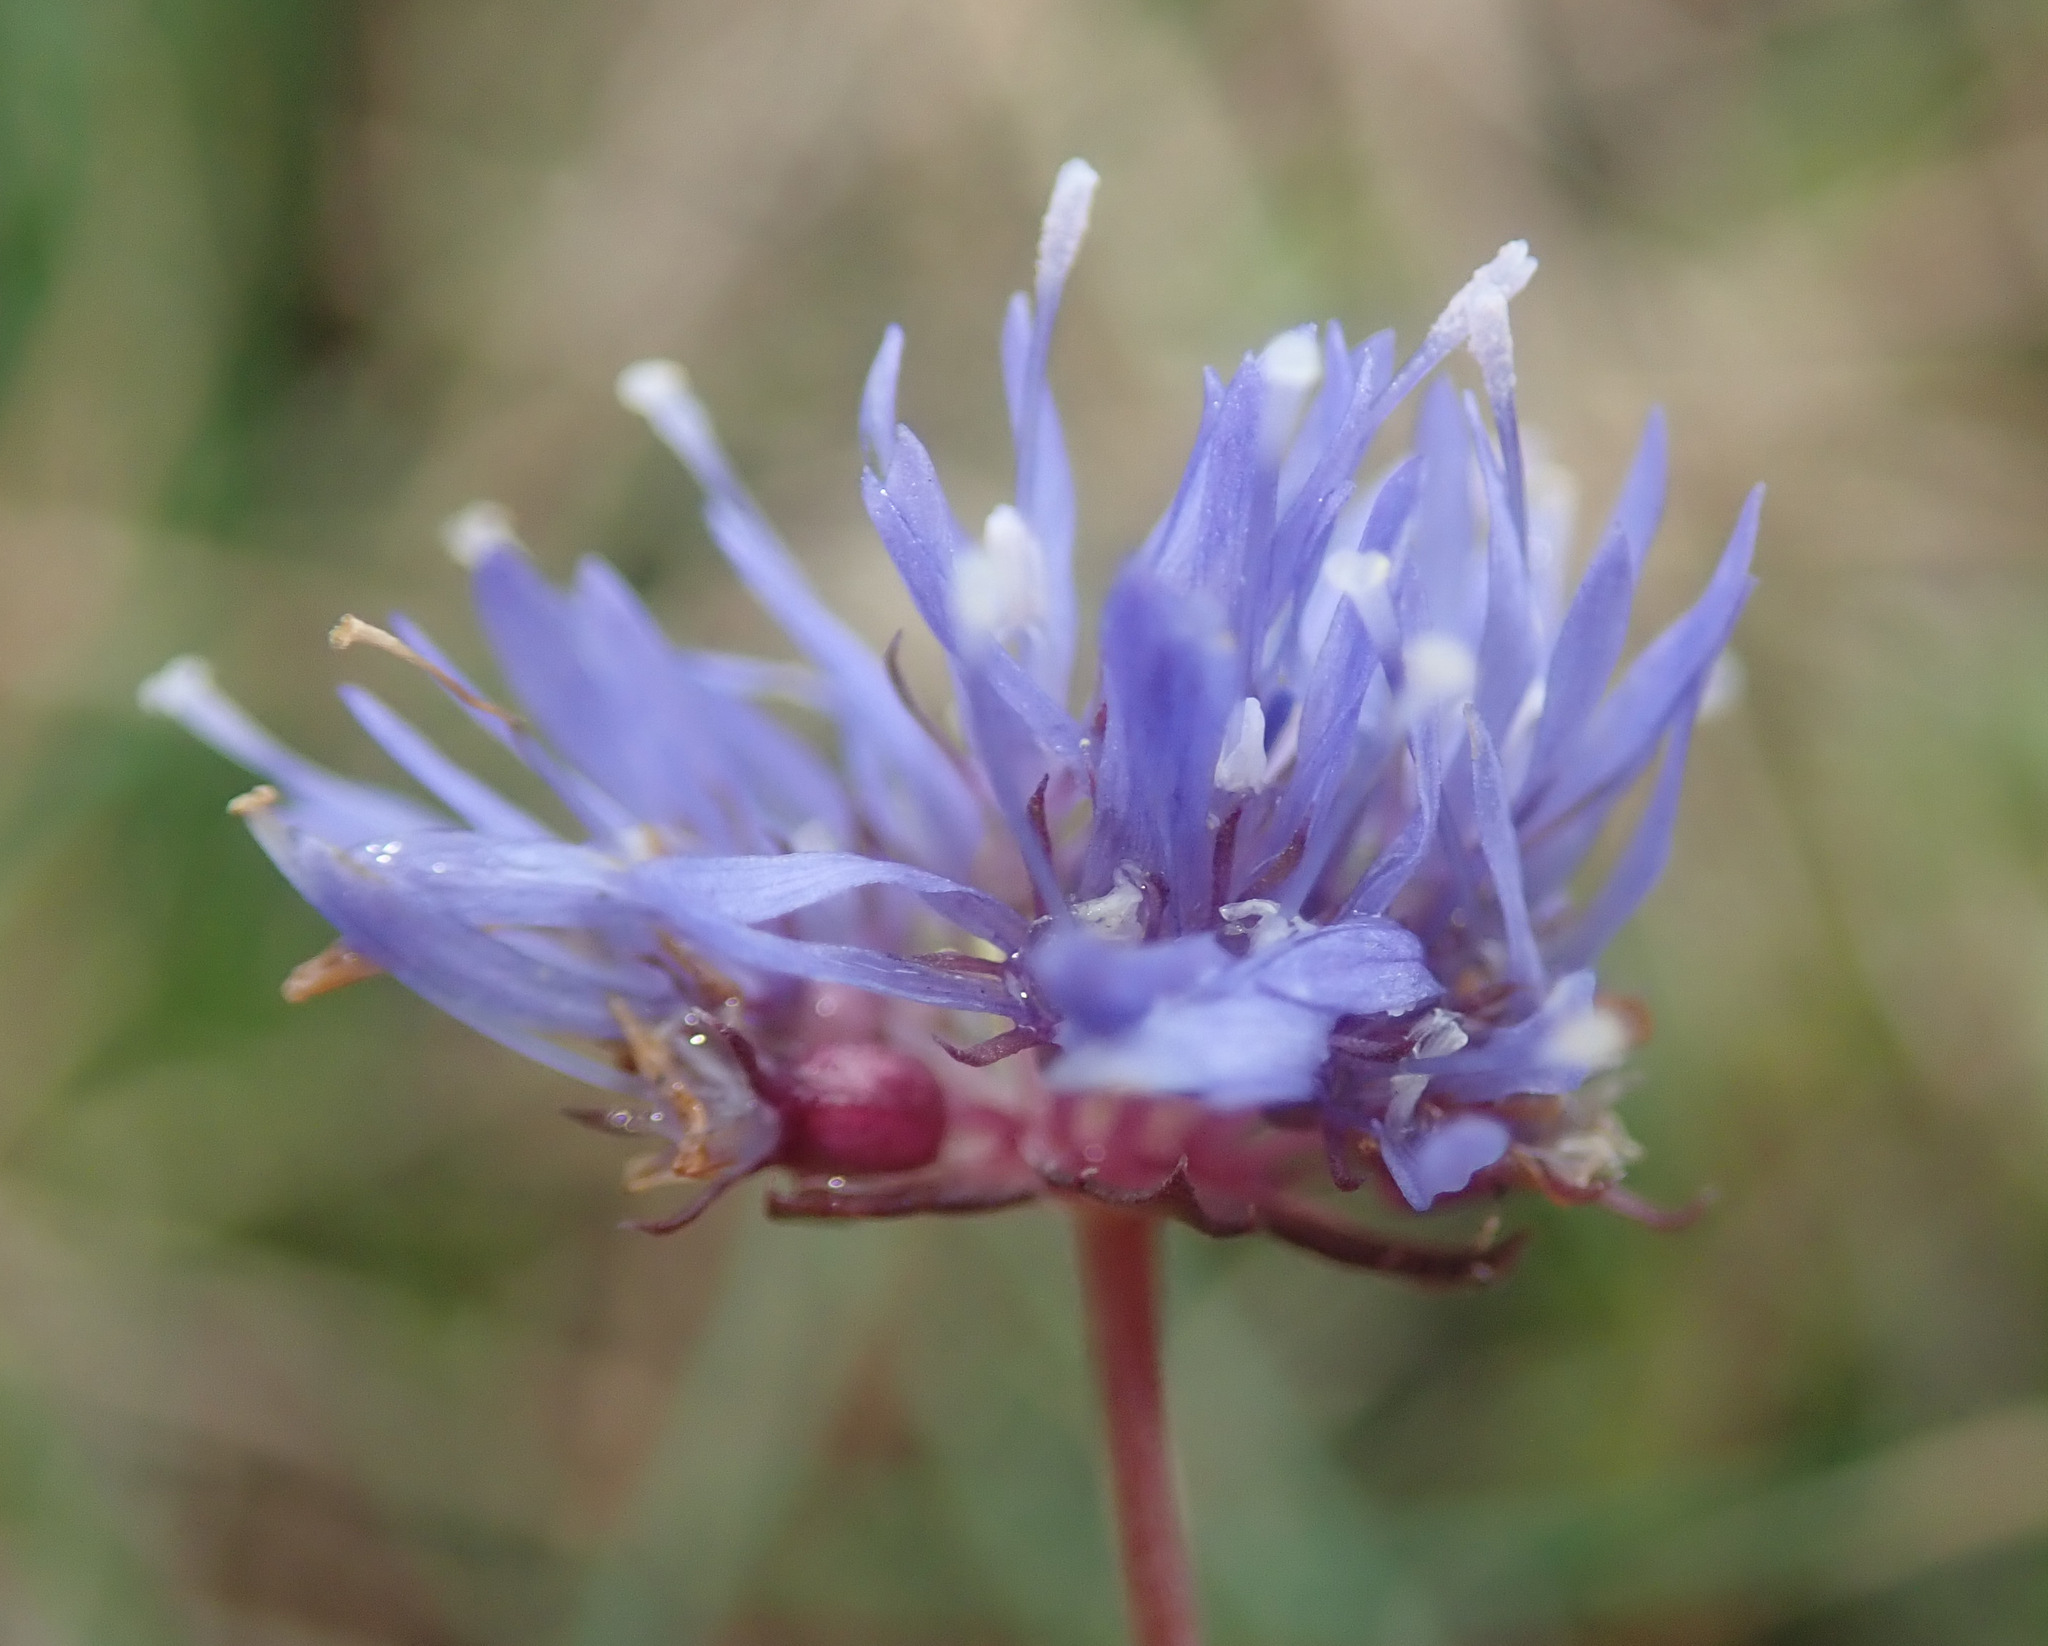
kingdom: Plantae
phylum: Tracheophyta
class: Magnoliopsida
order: Asterales
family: Campanulaceae
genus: Jasione
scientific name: Jasione montana
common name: Sheep's-bit
